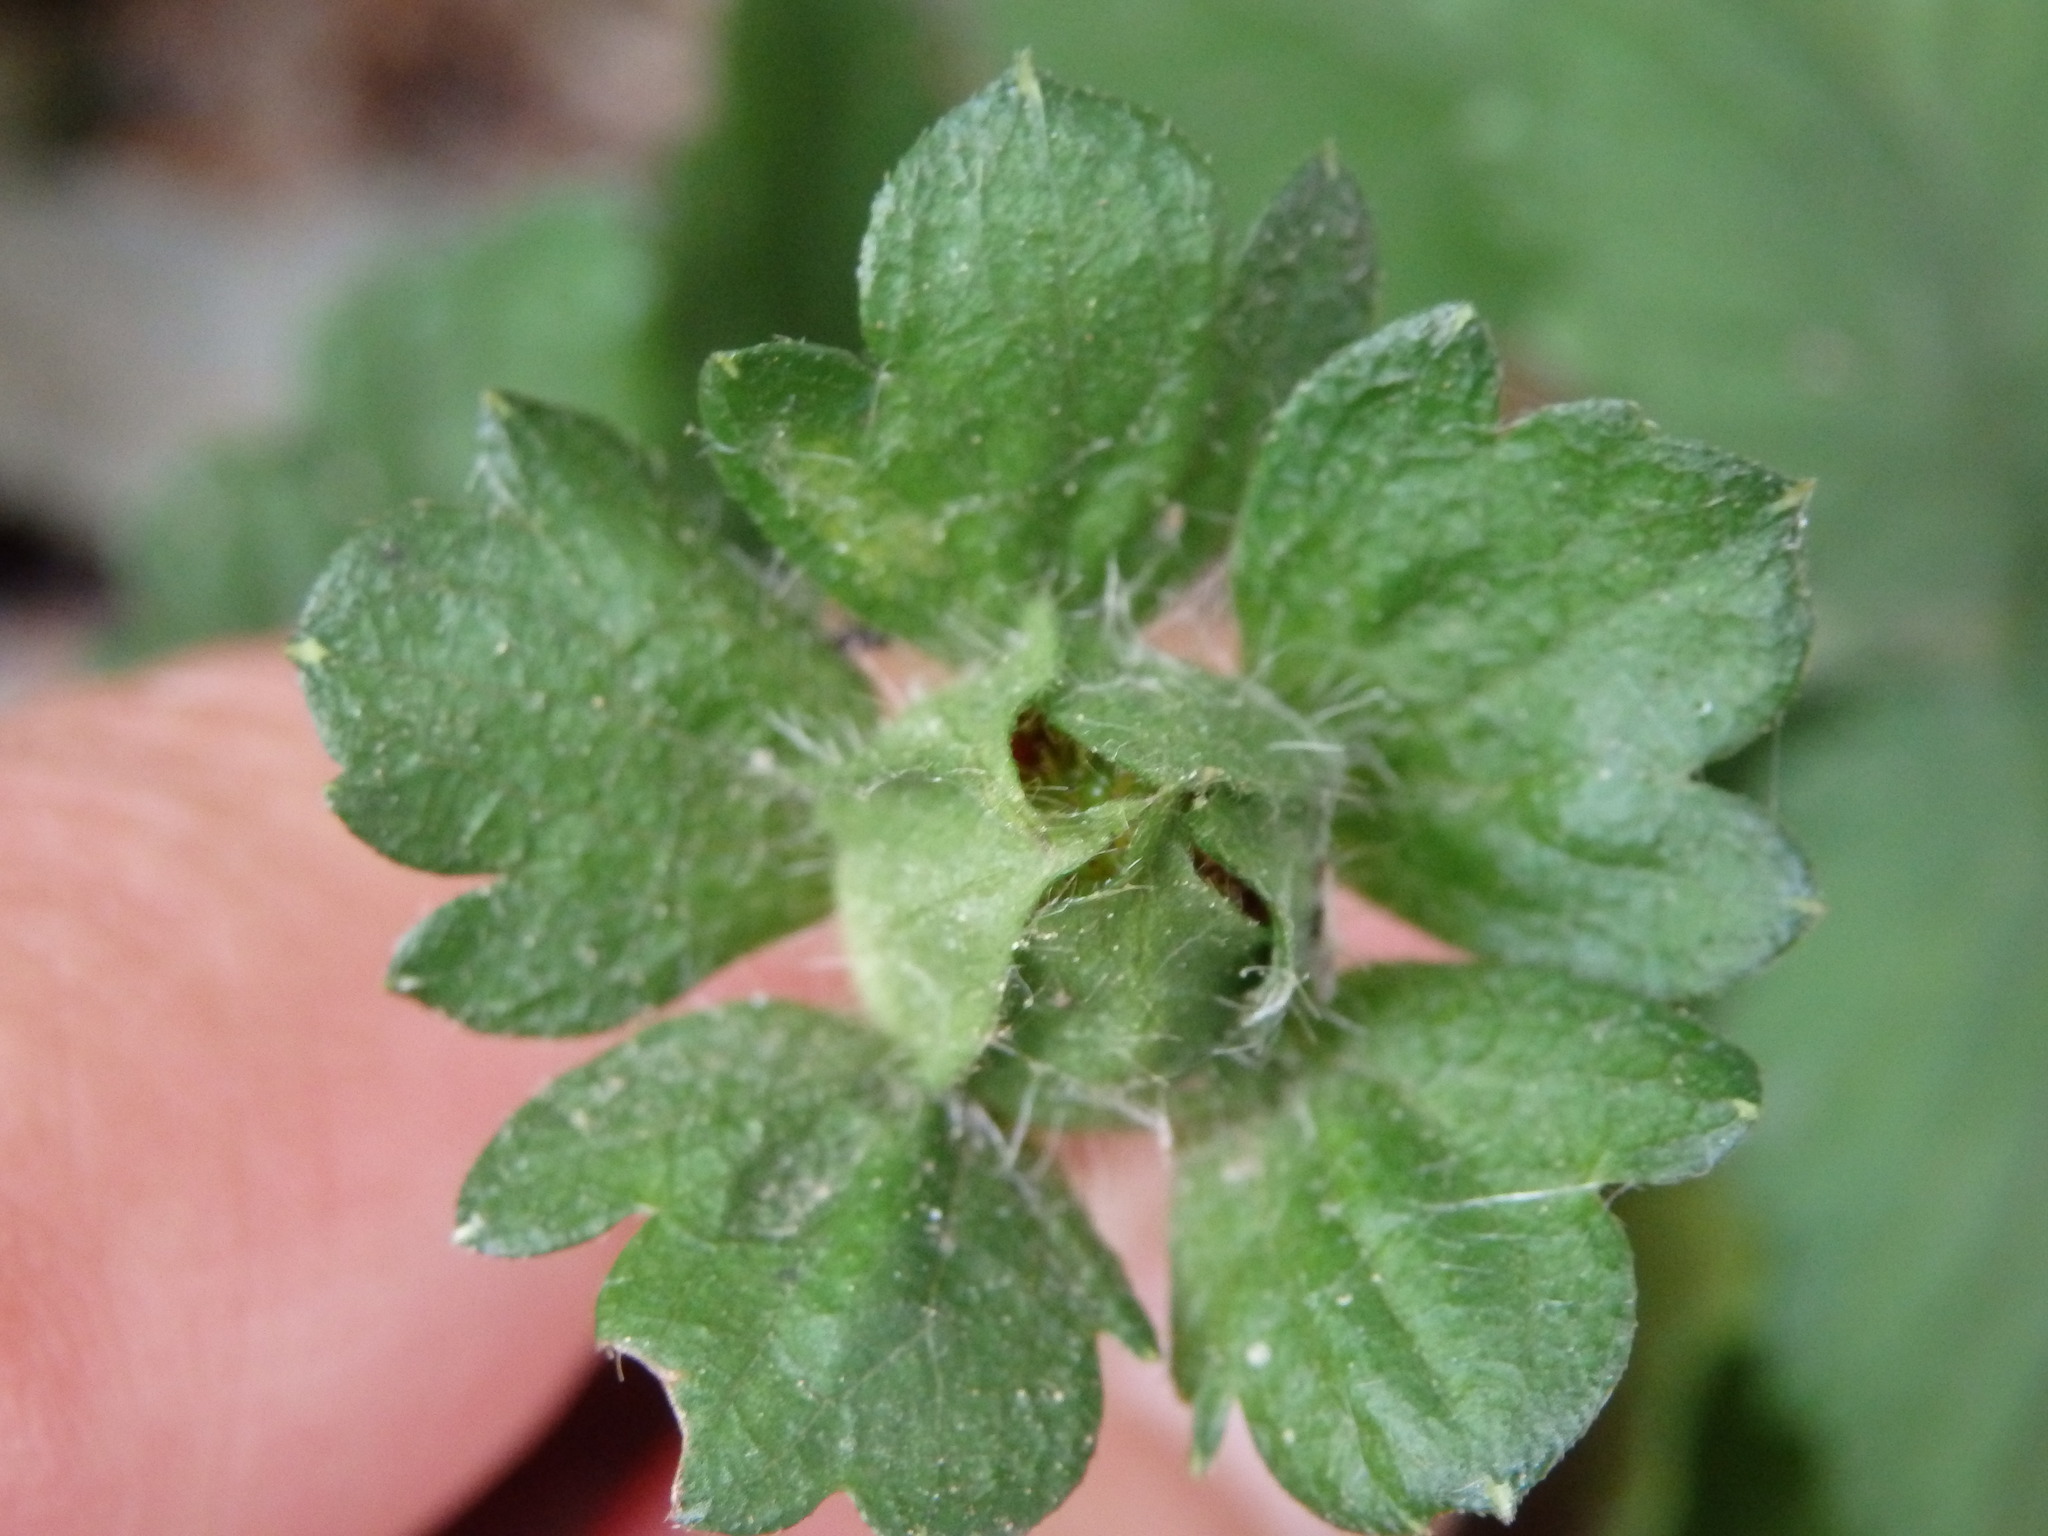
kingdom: Plantae
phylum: Tracheophyta
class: Magnoliopsida
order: Rosales
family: Rosaceae
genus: Potentilla
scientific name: Potentilla indica
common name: Yellow-flowered strawberry
